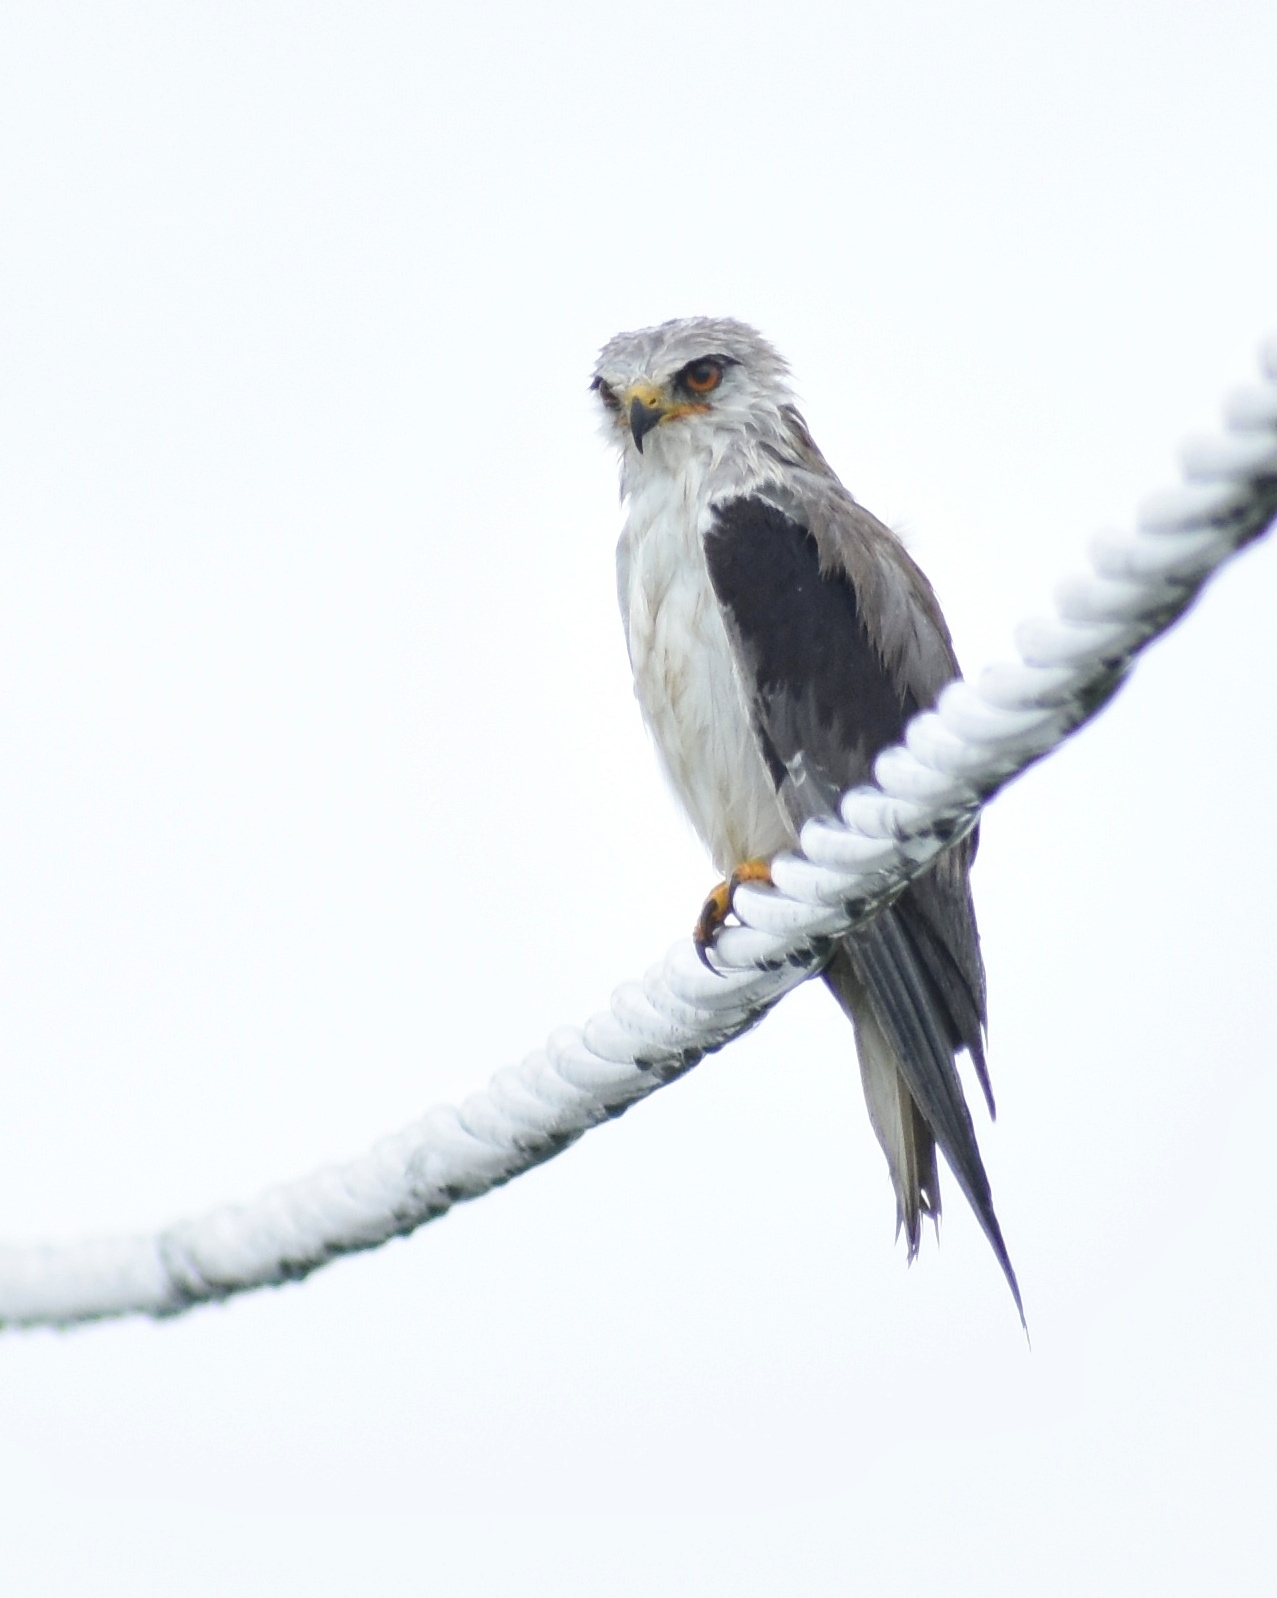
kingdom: Animalia
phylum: Chordata
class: Aves
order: Accipitriformes
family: Accipitridae
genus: Elanus
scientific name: Elanus caeruleus
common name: Black-winged kite
